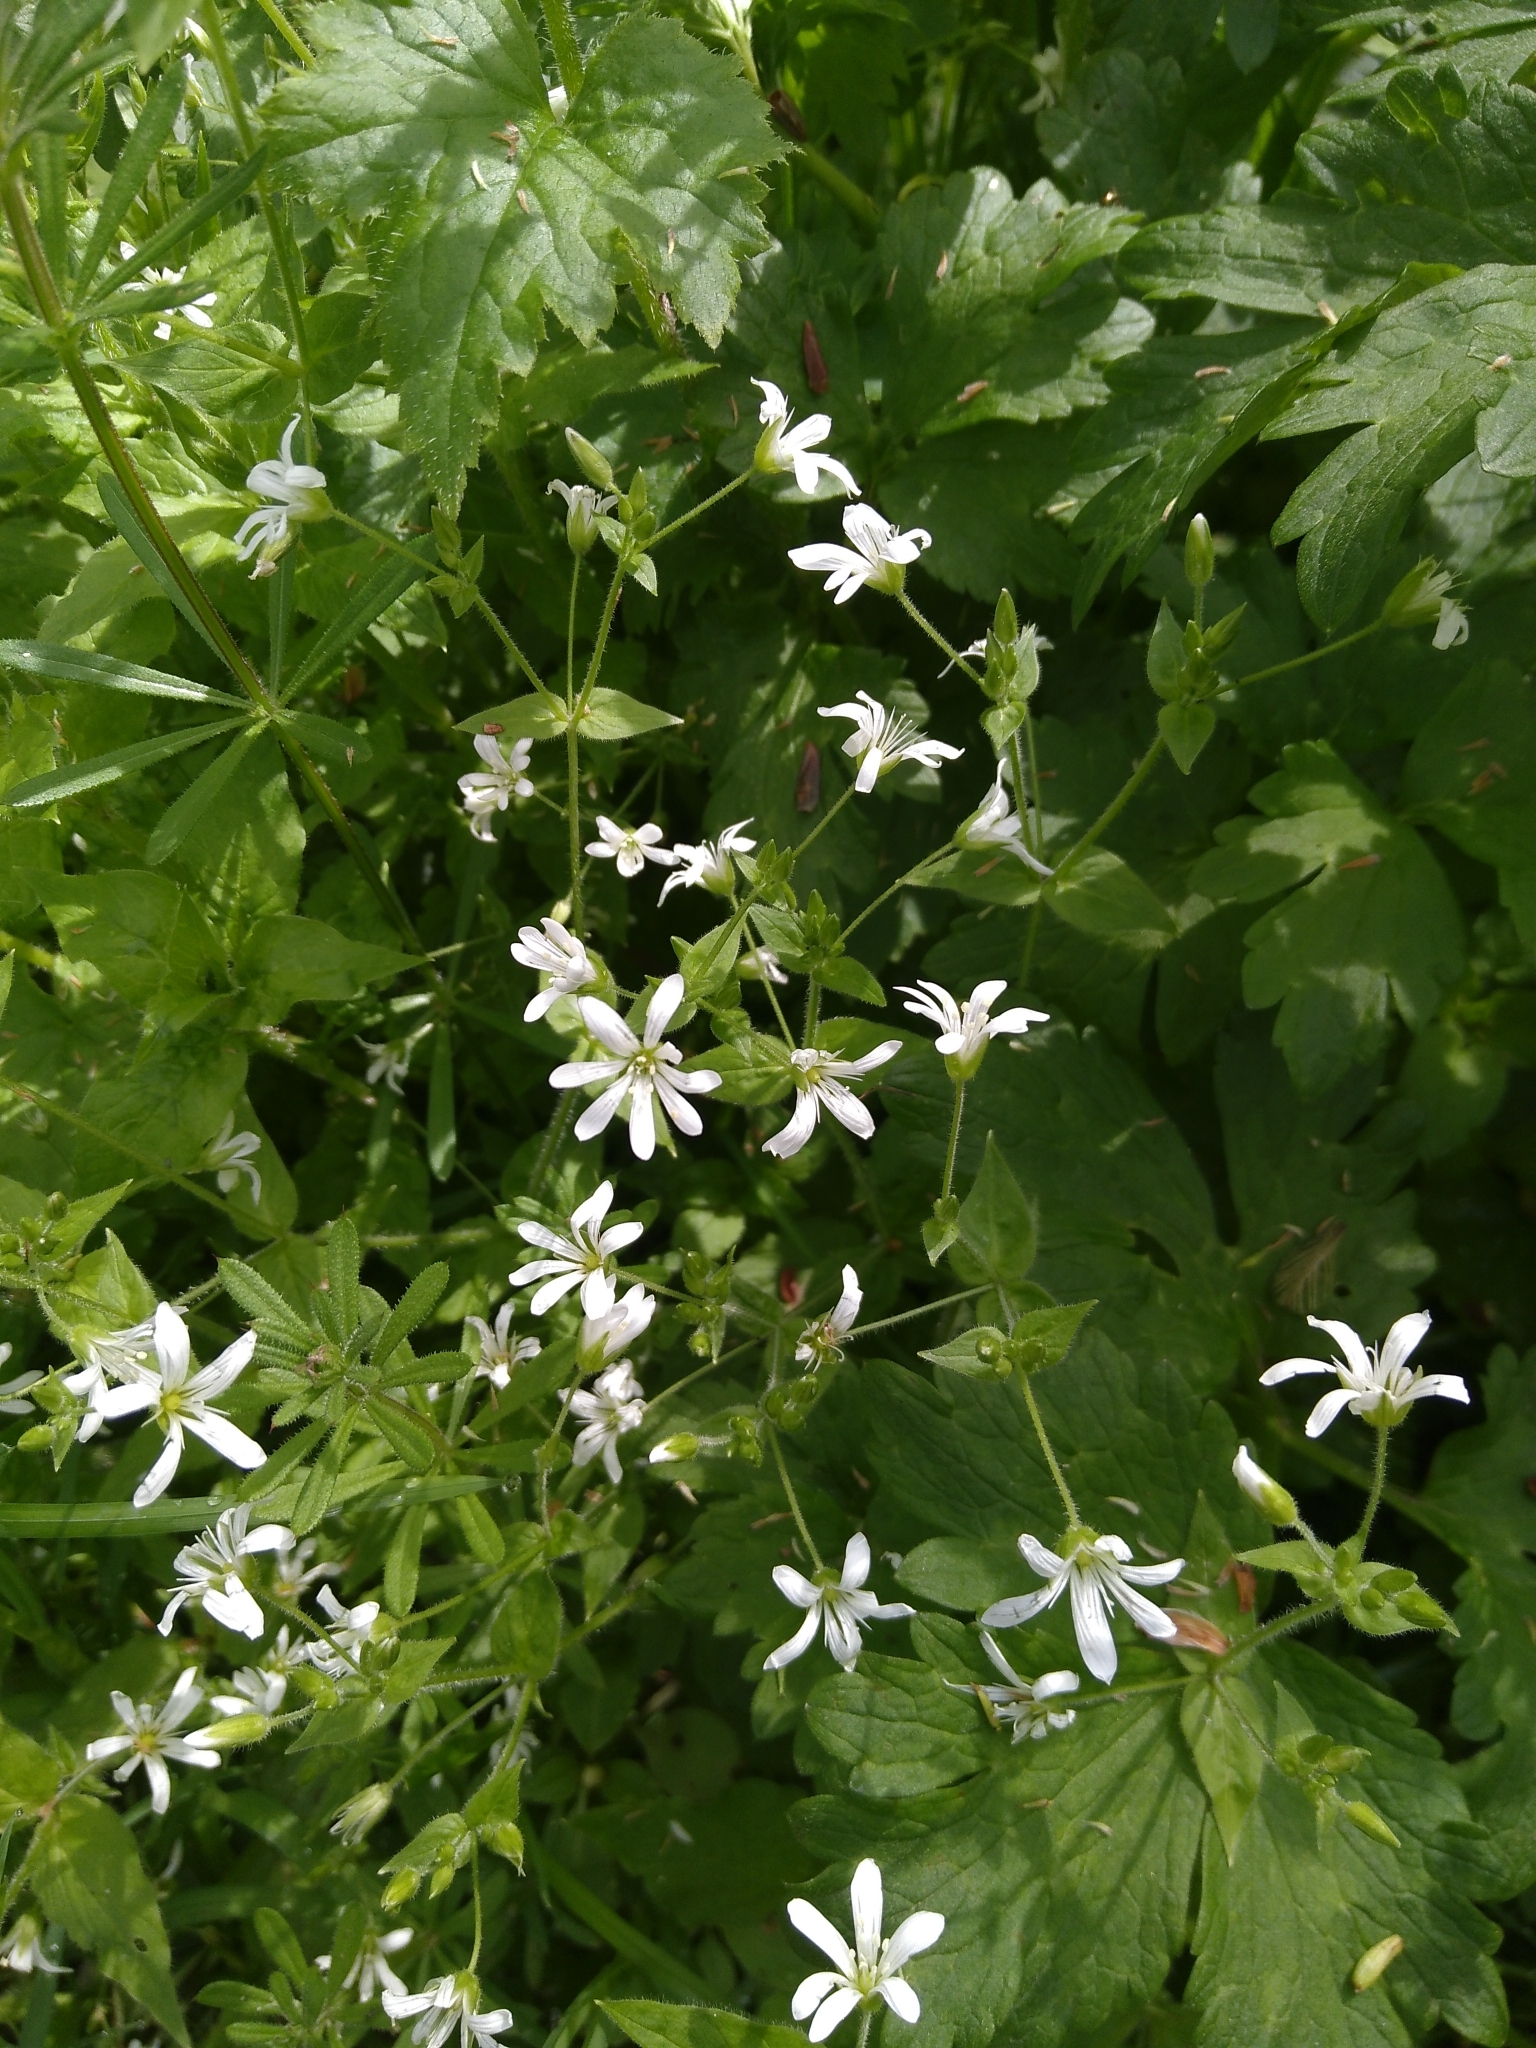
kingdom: Plantae
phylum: Tracheophyta
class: Magnoliopsida
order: Caryophyllales
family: Caryophyllaceae
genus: Stellaria
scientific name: Stellaria graminea
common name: Grass-like starwort
